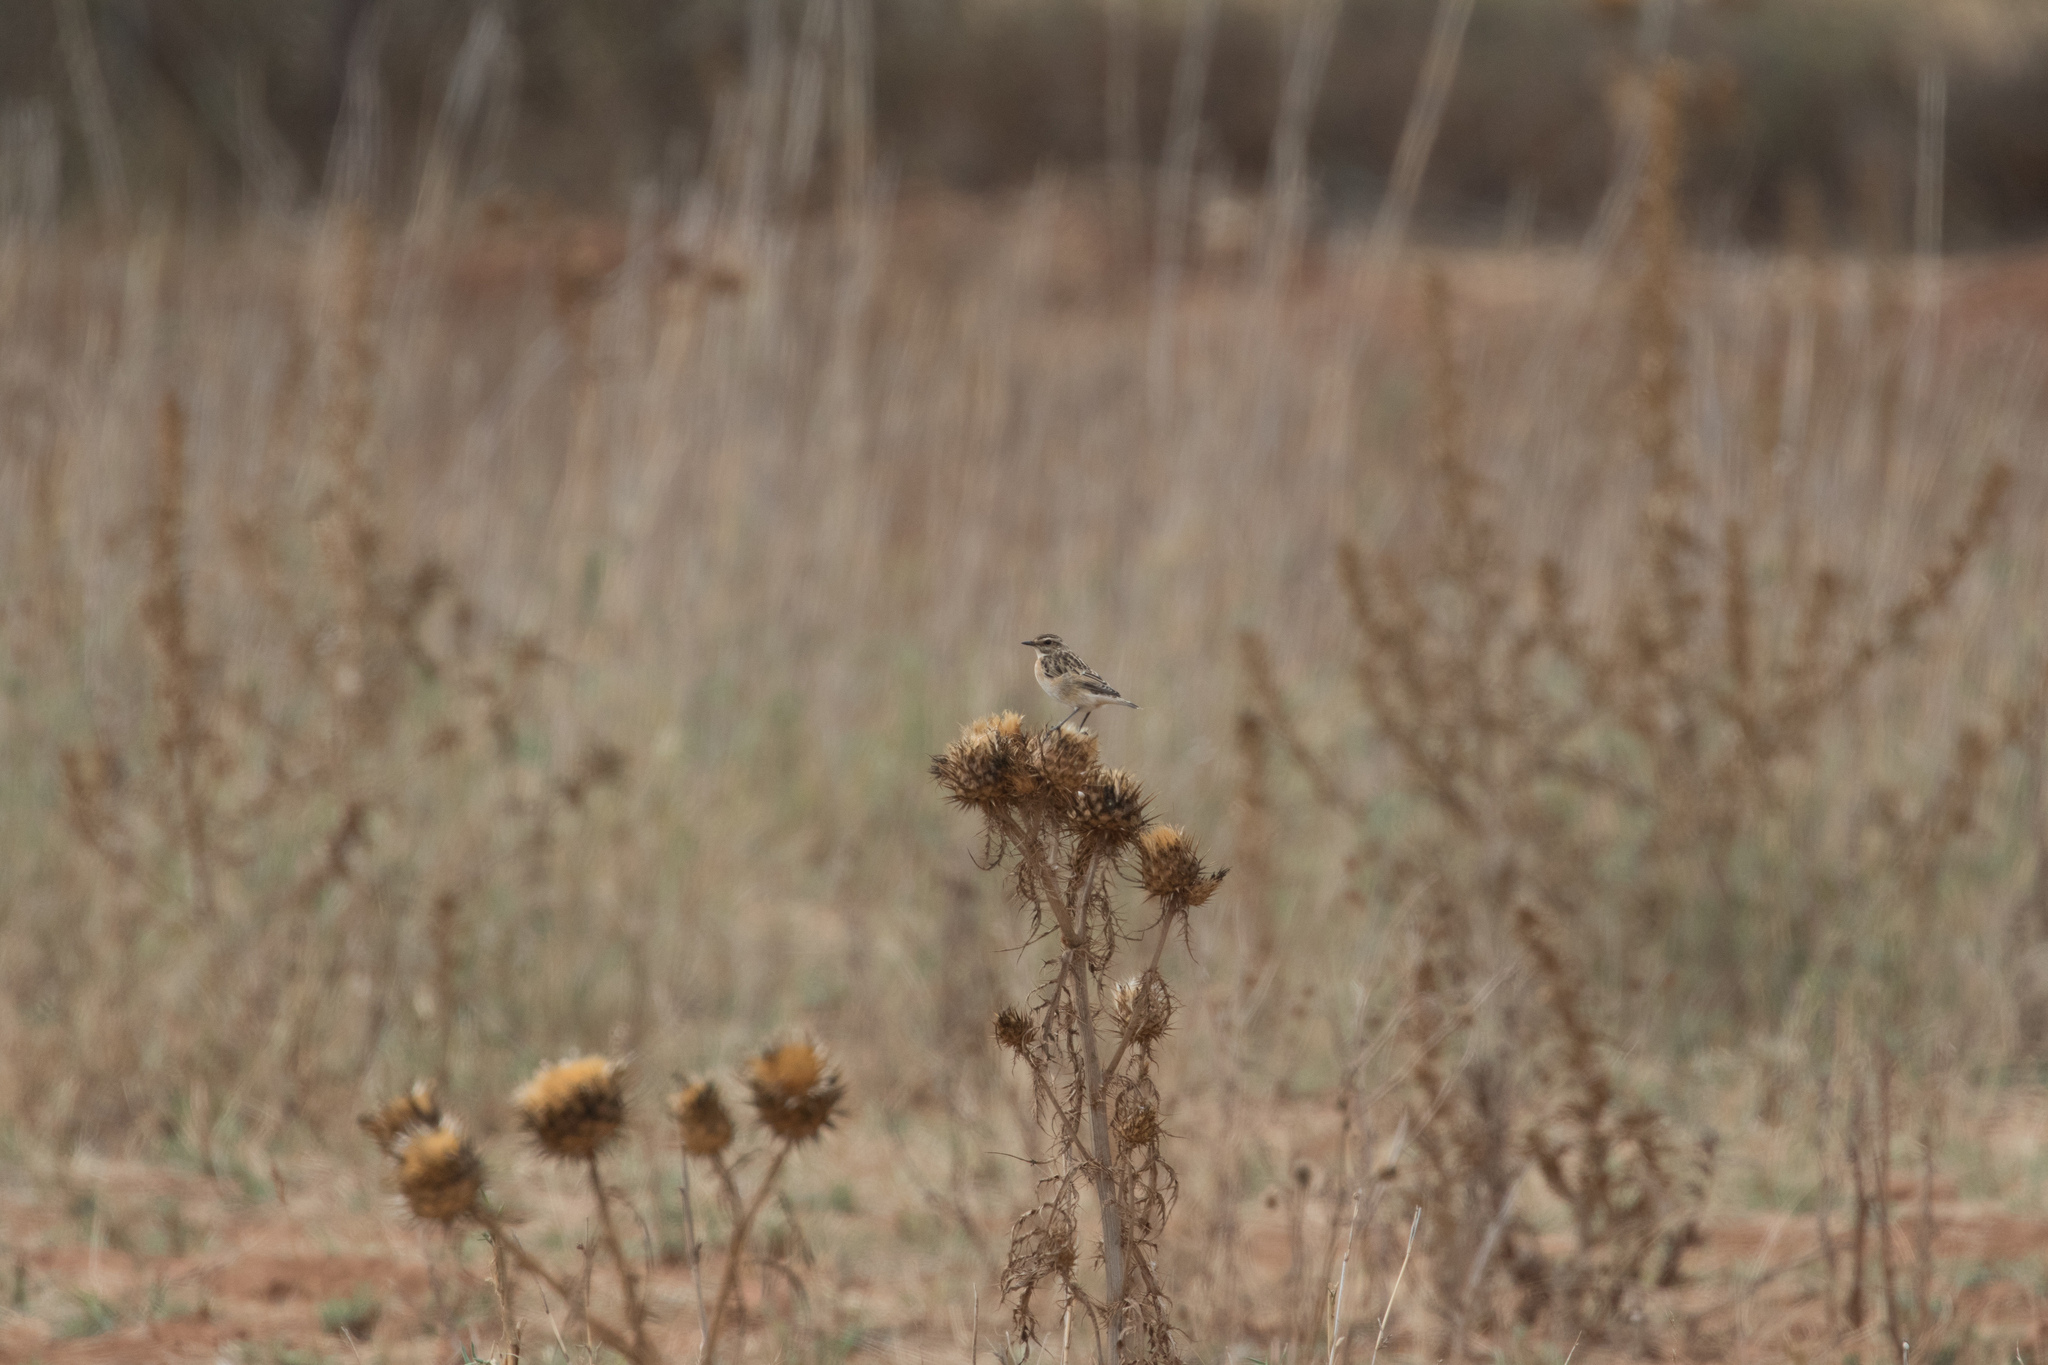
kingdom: Animalia
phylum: Chordata
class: Aves
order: Passeriformes
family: Muscicapidae
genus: Saxicola
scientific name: Saxicola rubetra
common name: Whinchat
